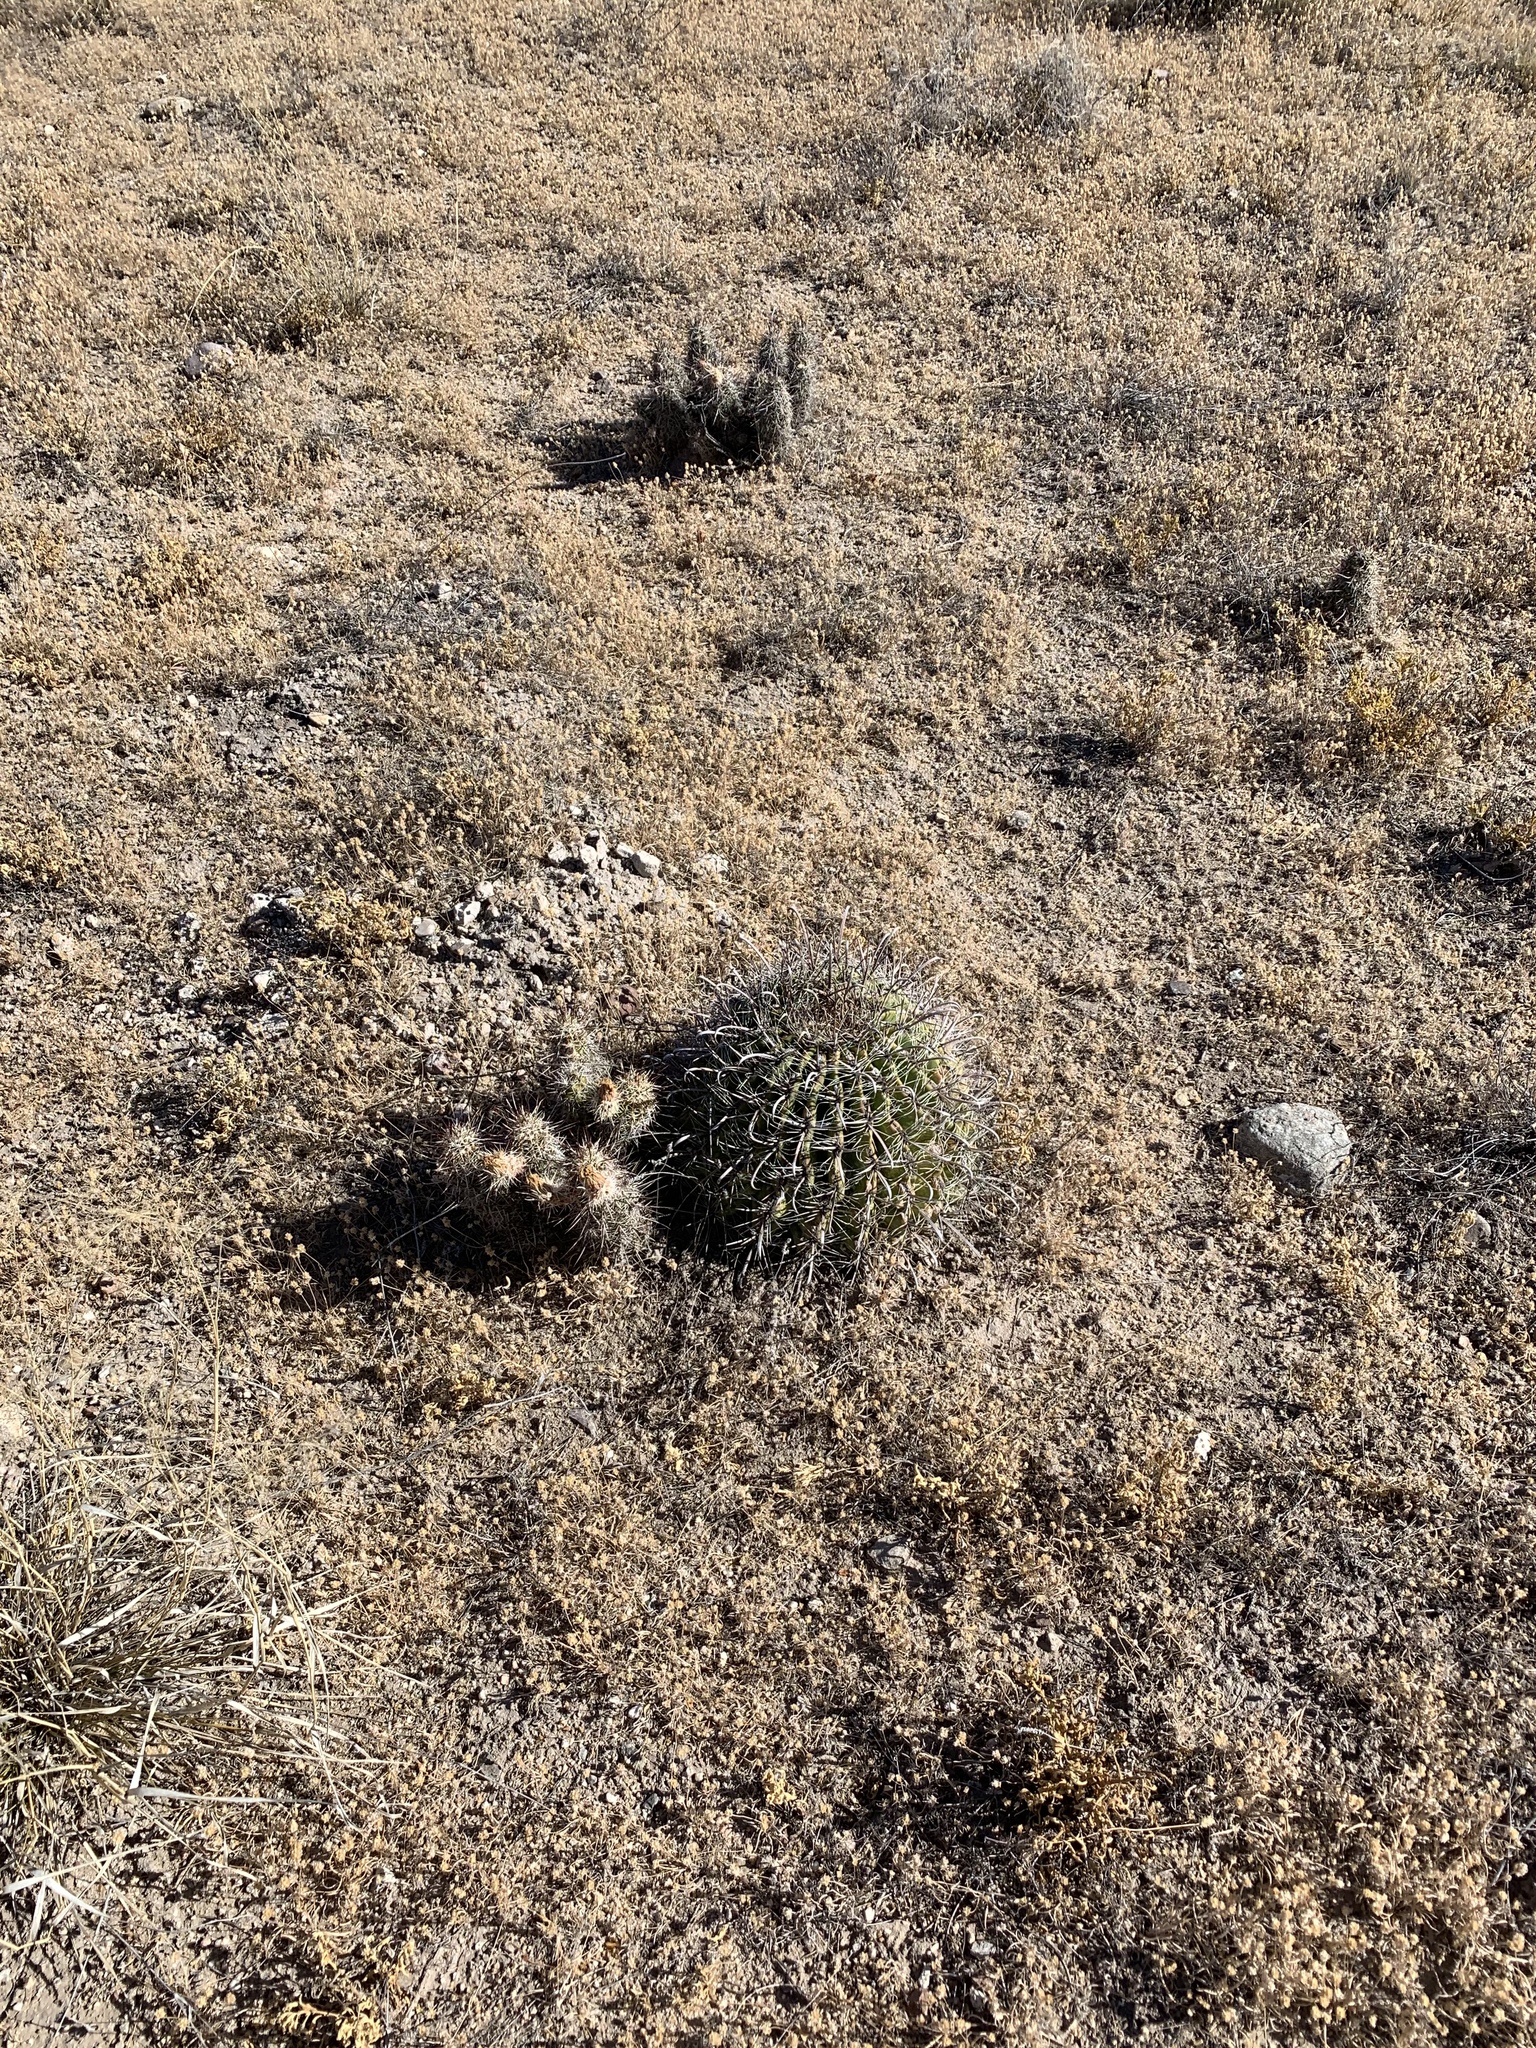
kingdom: Plantae
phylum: Tracheophyta
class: Magnoliopsida
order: Caryophyllales
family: Cactaceae
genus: Echinocereus
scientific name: Echinocereus fasciculatus
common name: Bundle hedgehog
